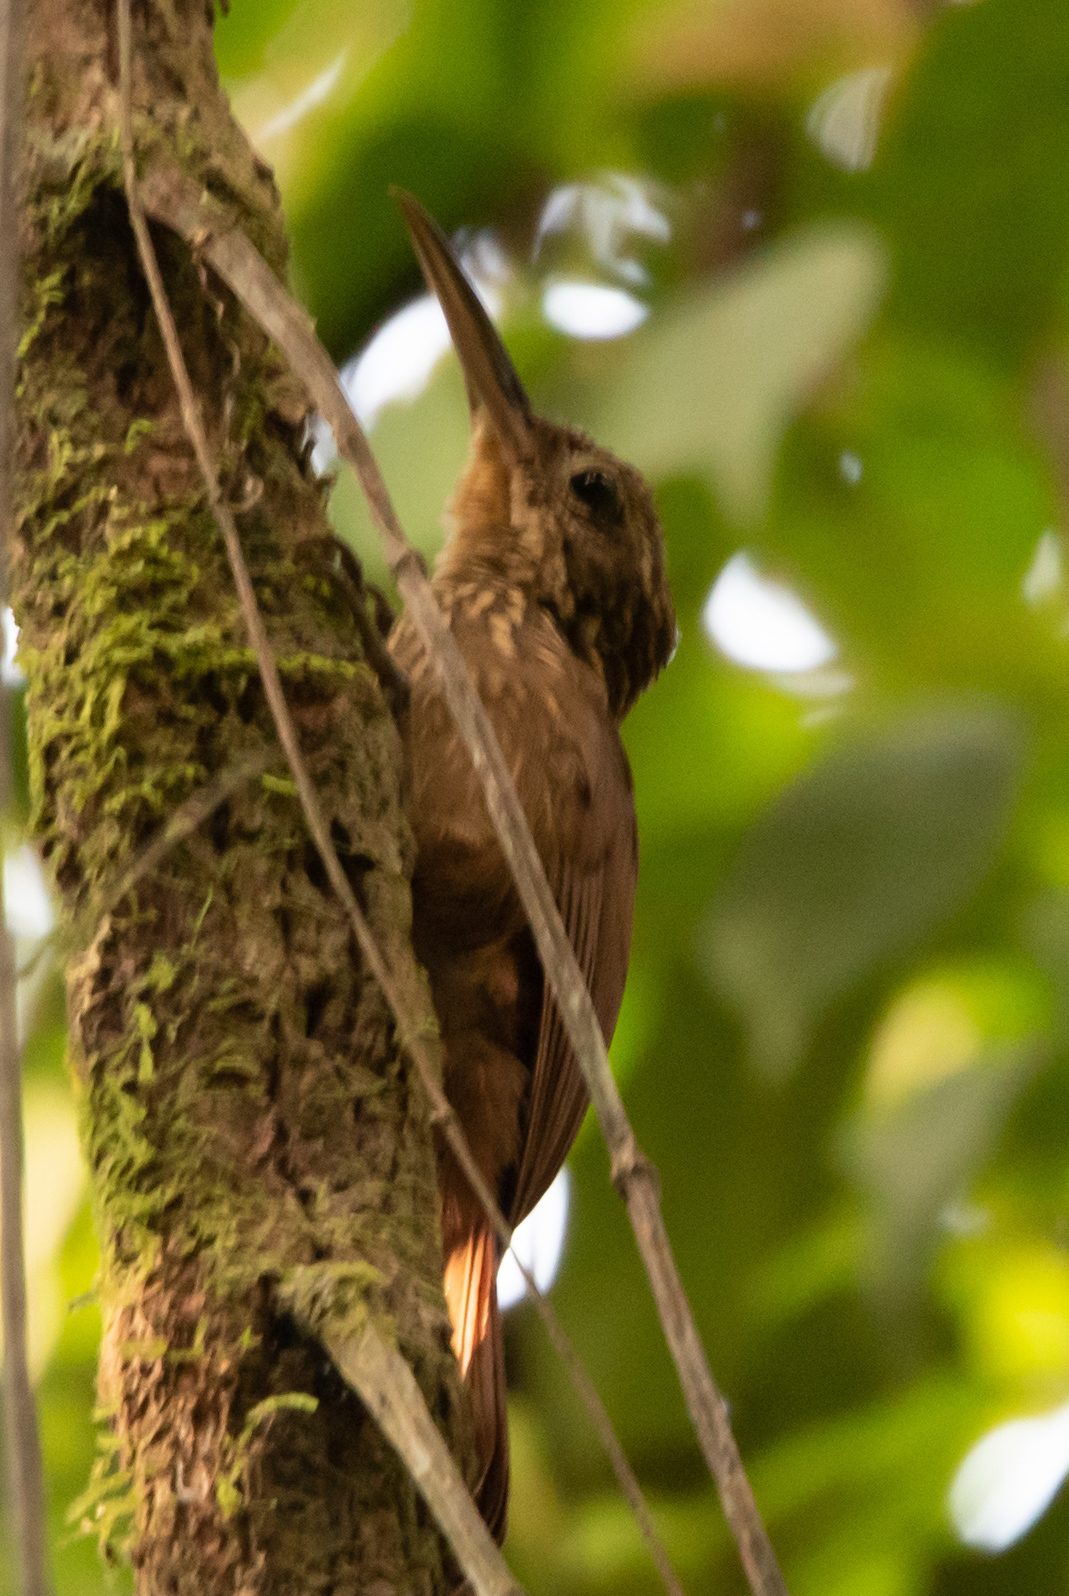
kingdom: Animalia
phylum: Chordata
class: Aves
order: Passeriformes
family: Furnariidae
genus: Xiphorhynchus
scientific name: Xiphorhynchus susurrans
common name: Cocoa woodcreeper
